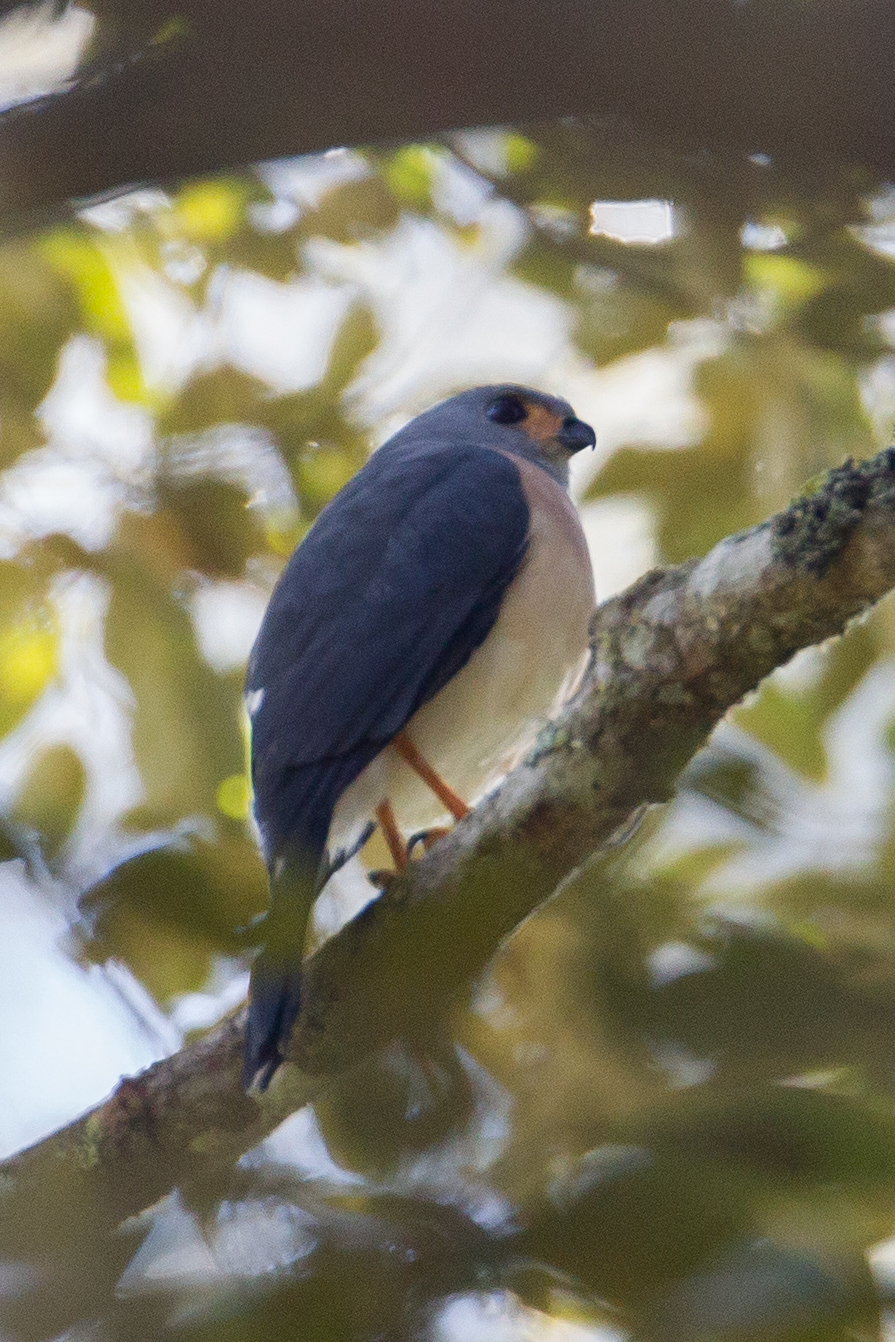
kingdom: Animalia
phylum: Chordata
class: Aves
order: Accipitriformes
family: Accipitridae
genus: Accipiter
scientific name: Accipiter trinotatus
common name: Spot-tailed sparrowhawk
